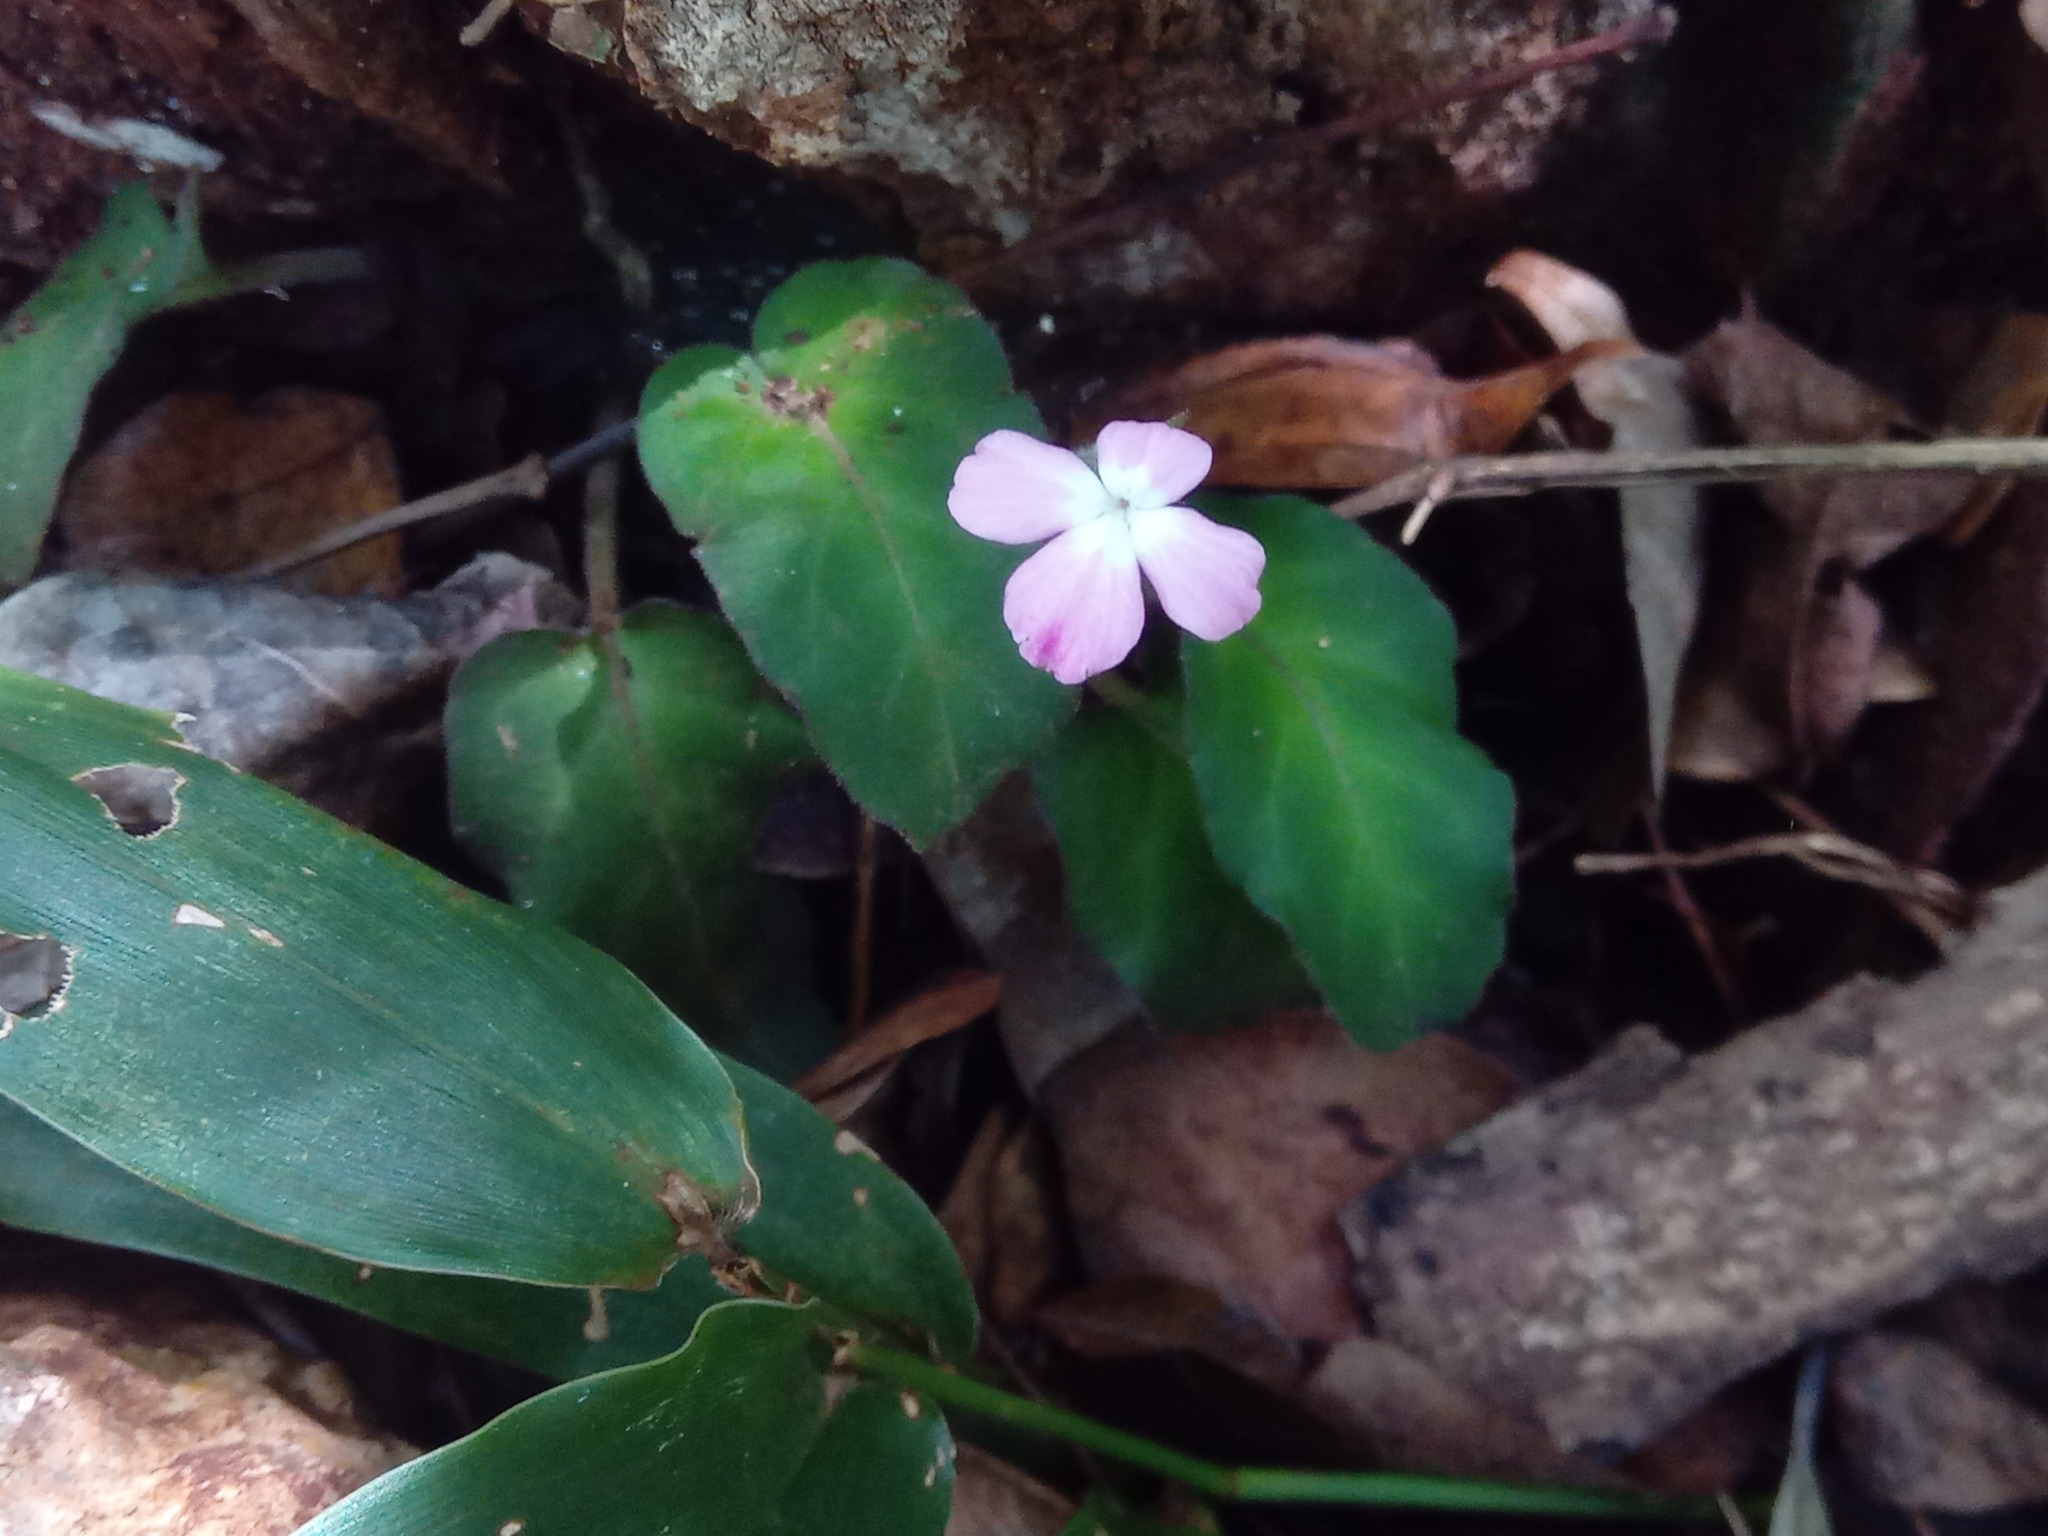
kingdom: Plantae
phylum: Tracheophyta
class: Magnoliopsida
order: Lamiales
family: Acanthaceae
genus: Ruellia
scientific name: Ruellia inundata
